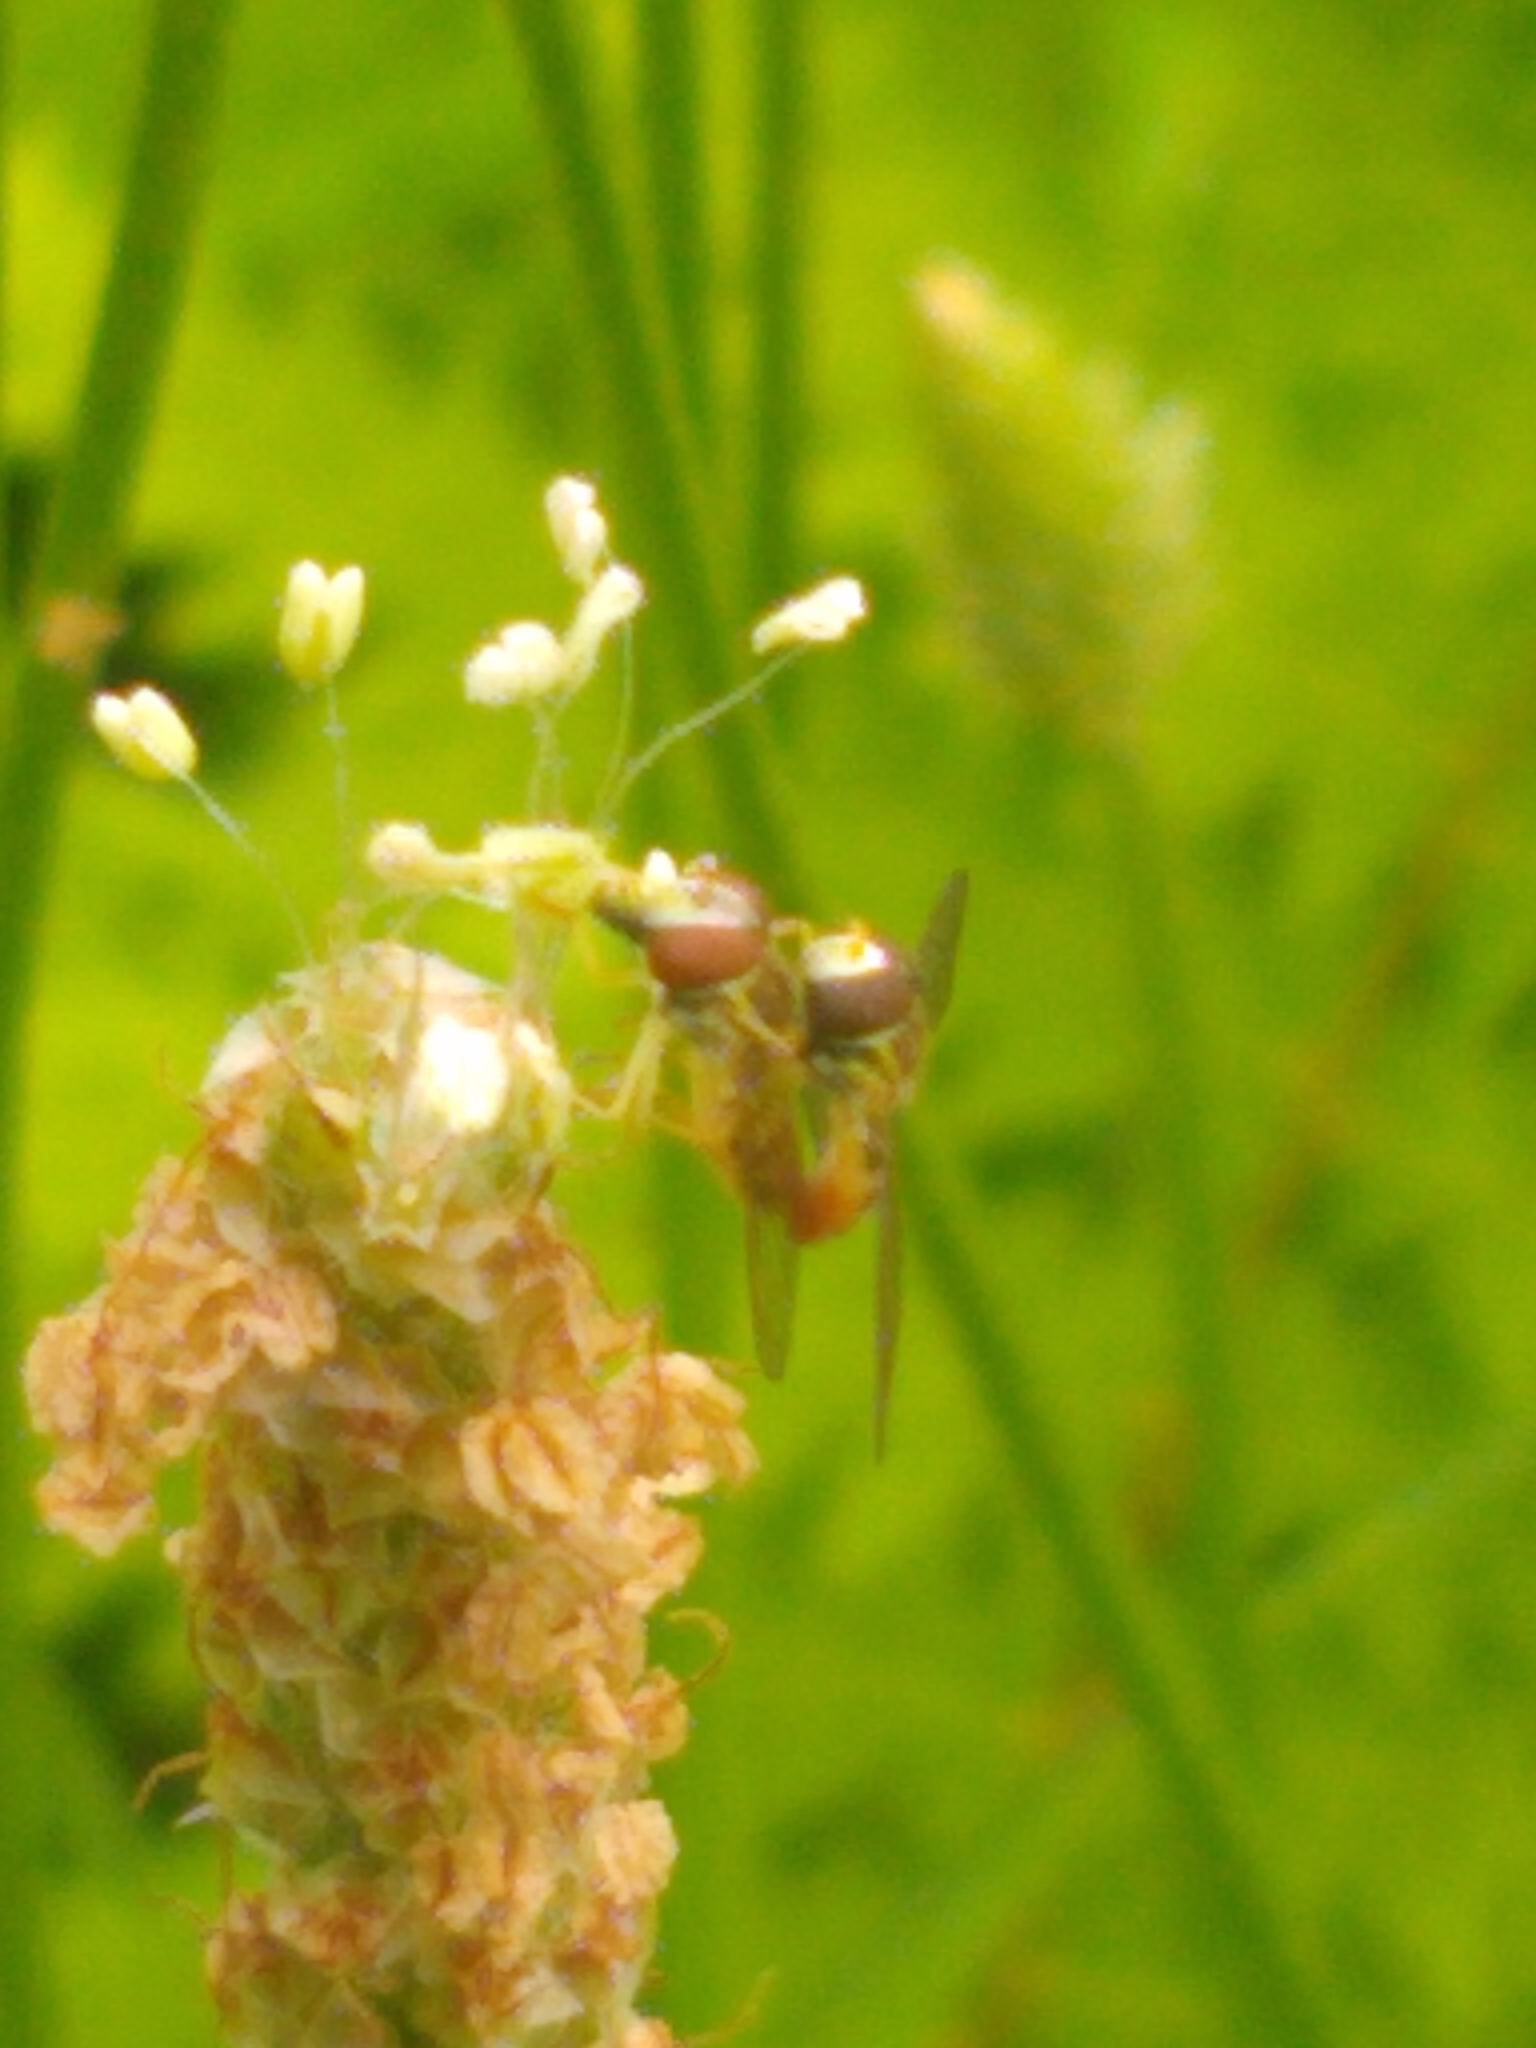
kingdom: Animalia
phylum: Arthropoda
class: Insecta
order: Diptera
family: Syrphidae
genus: Toxomerus
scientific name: Toxomerus marginatus
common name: Syrphid fly
